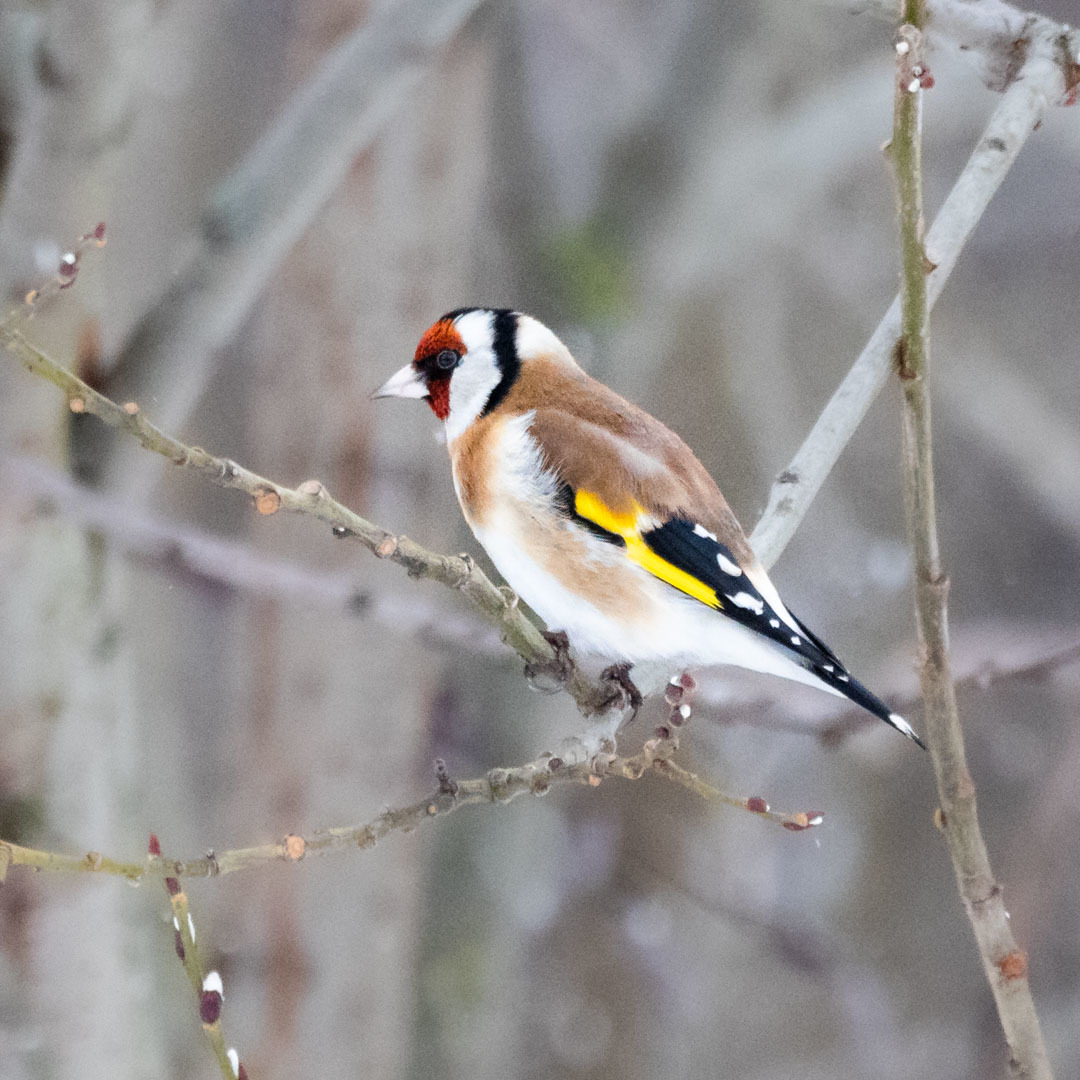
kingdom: Animalia
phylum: Chordata
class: Aves
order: Passeriformes
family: Fringillidae
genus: Carduelis
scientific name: Carduelis carduelis
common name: European goldfinch
